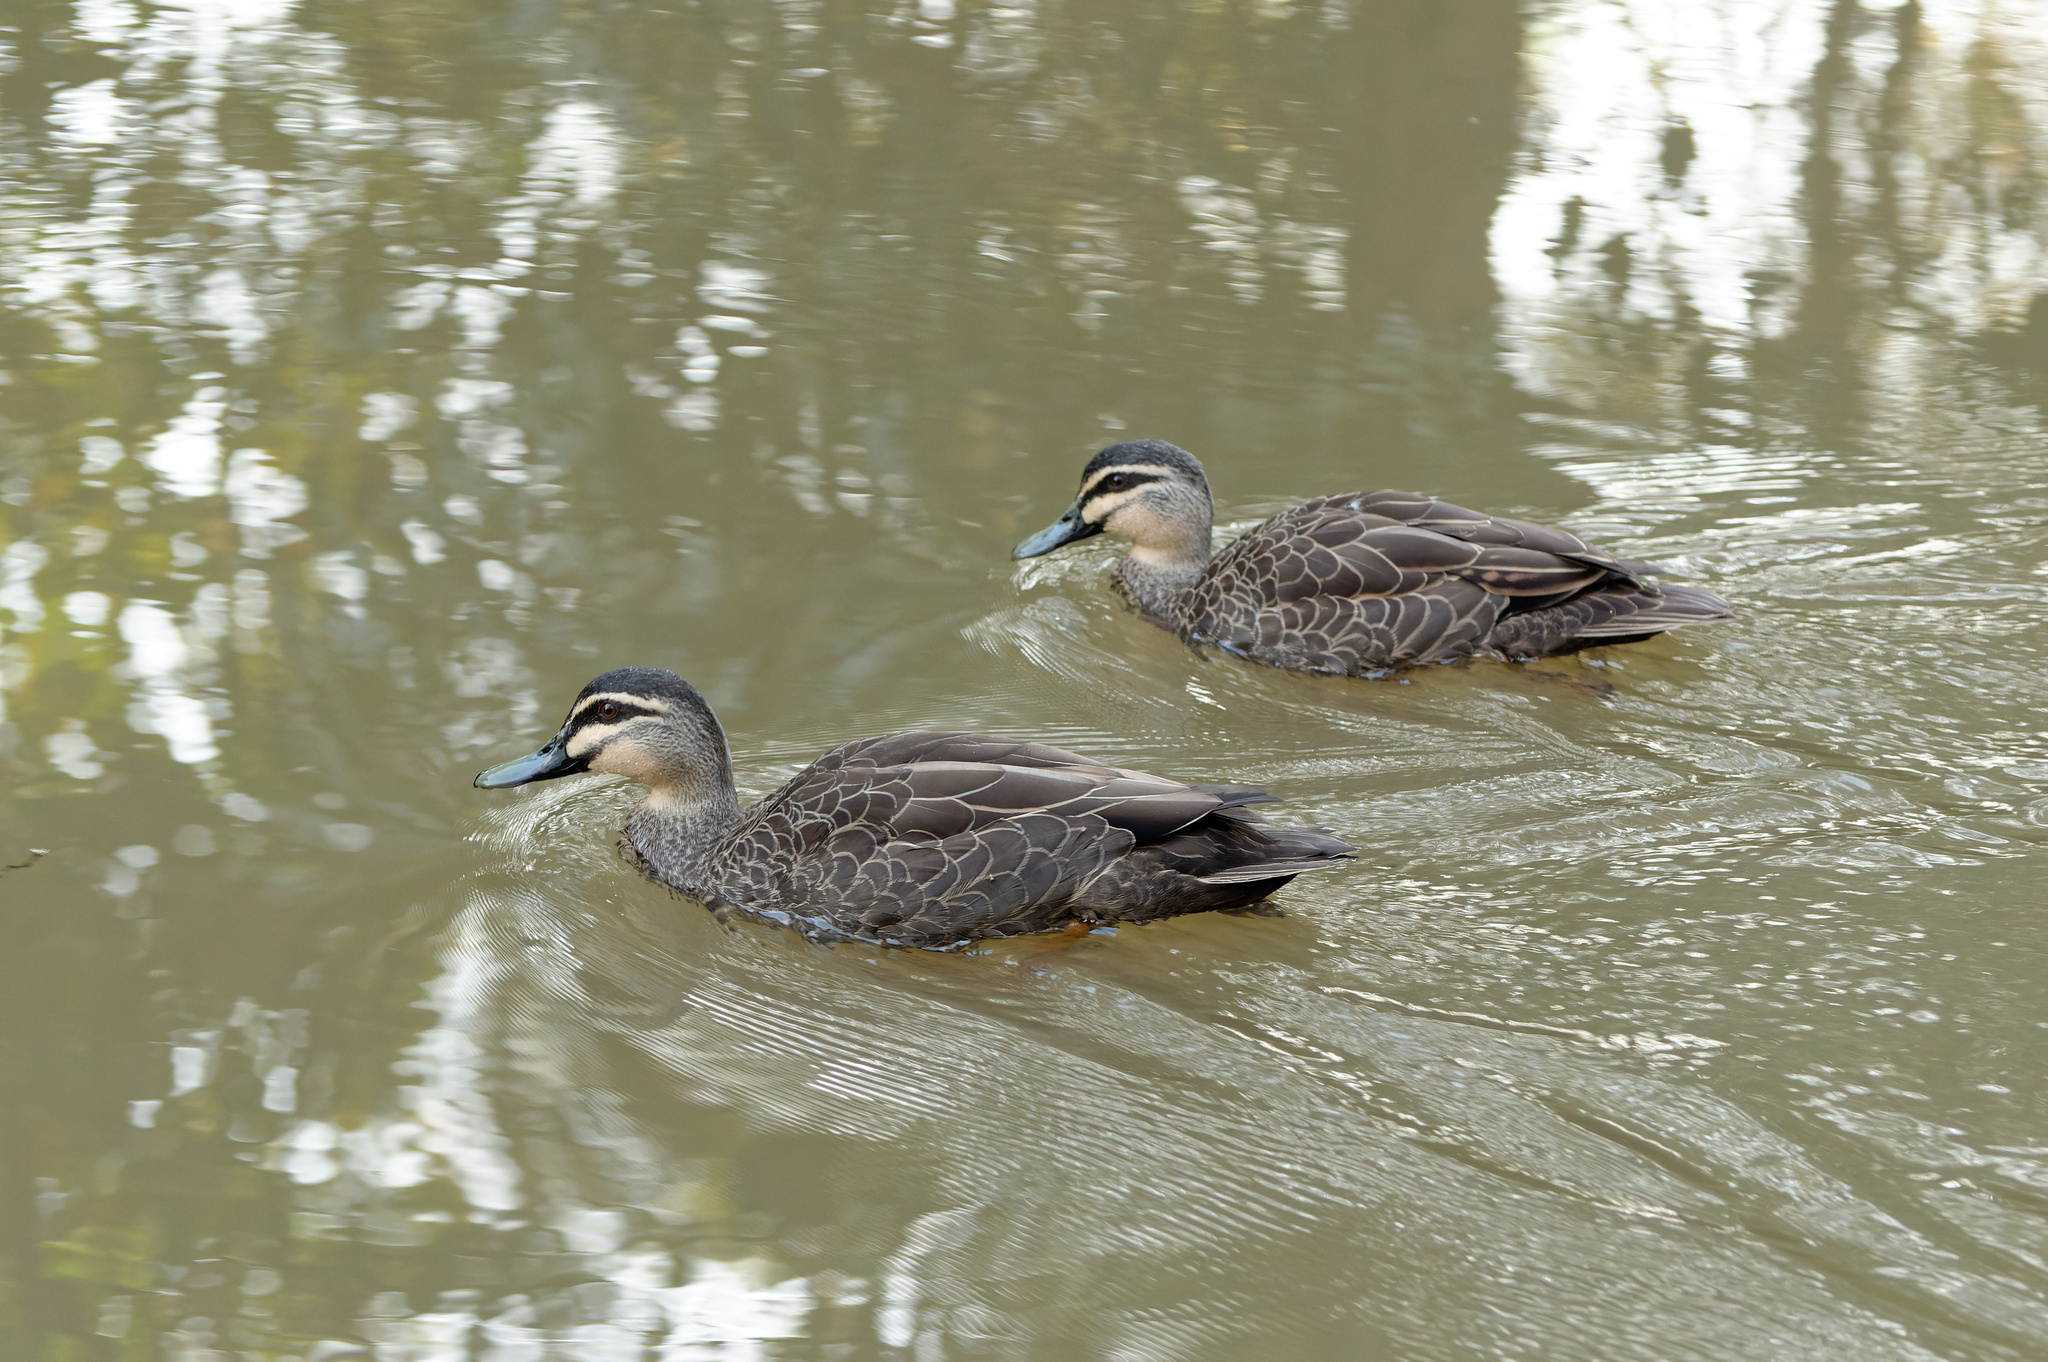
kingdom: Animalia
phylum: Chordata
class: Aves
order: Anseriformes
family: Anatidae
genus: Anas
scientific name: Anas superciliosa
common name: Pacific black duck
